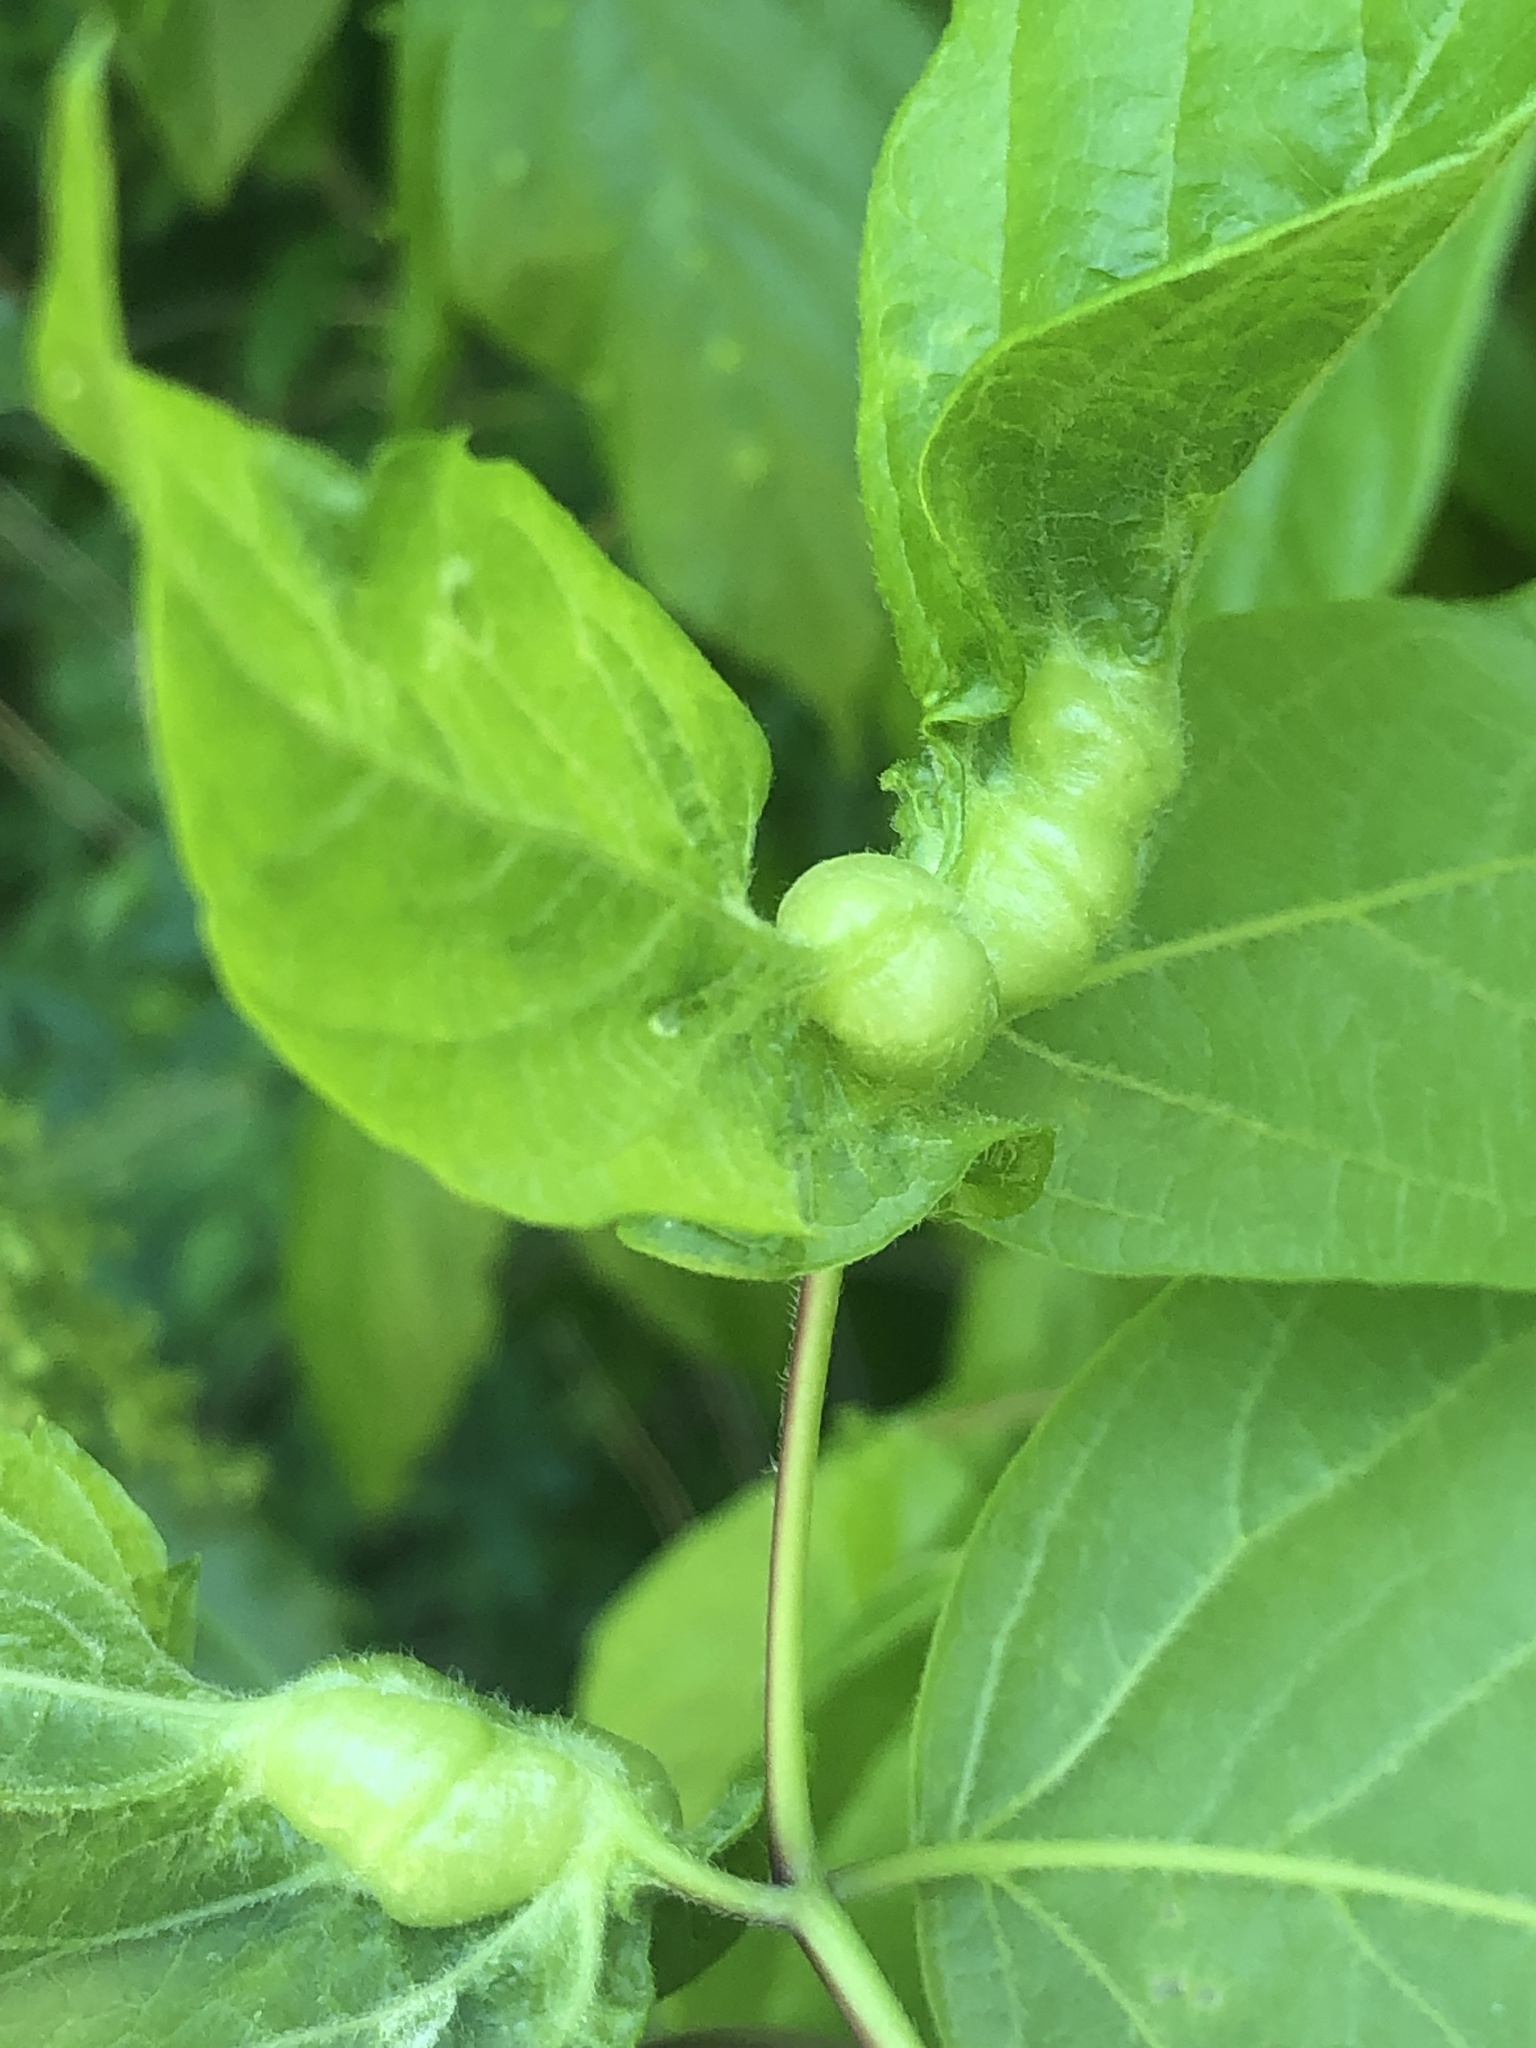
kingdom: Animalia
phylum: Arthropoda
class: Insecta
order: Diptera
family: Cecidomyiidae
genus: Contarinia
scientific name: Contarinia negundinis
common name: Boxelder budgall midge
